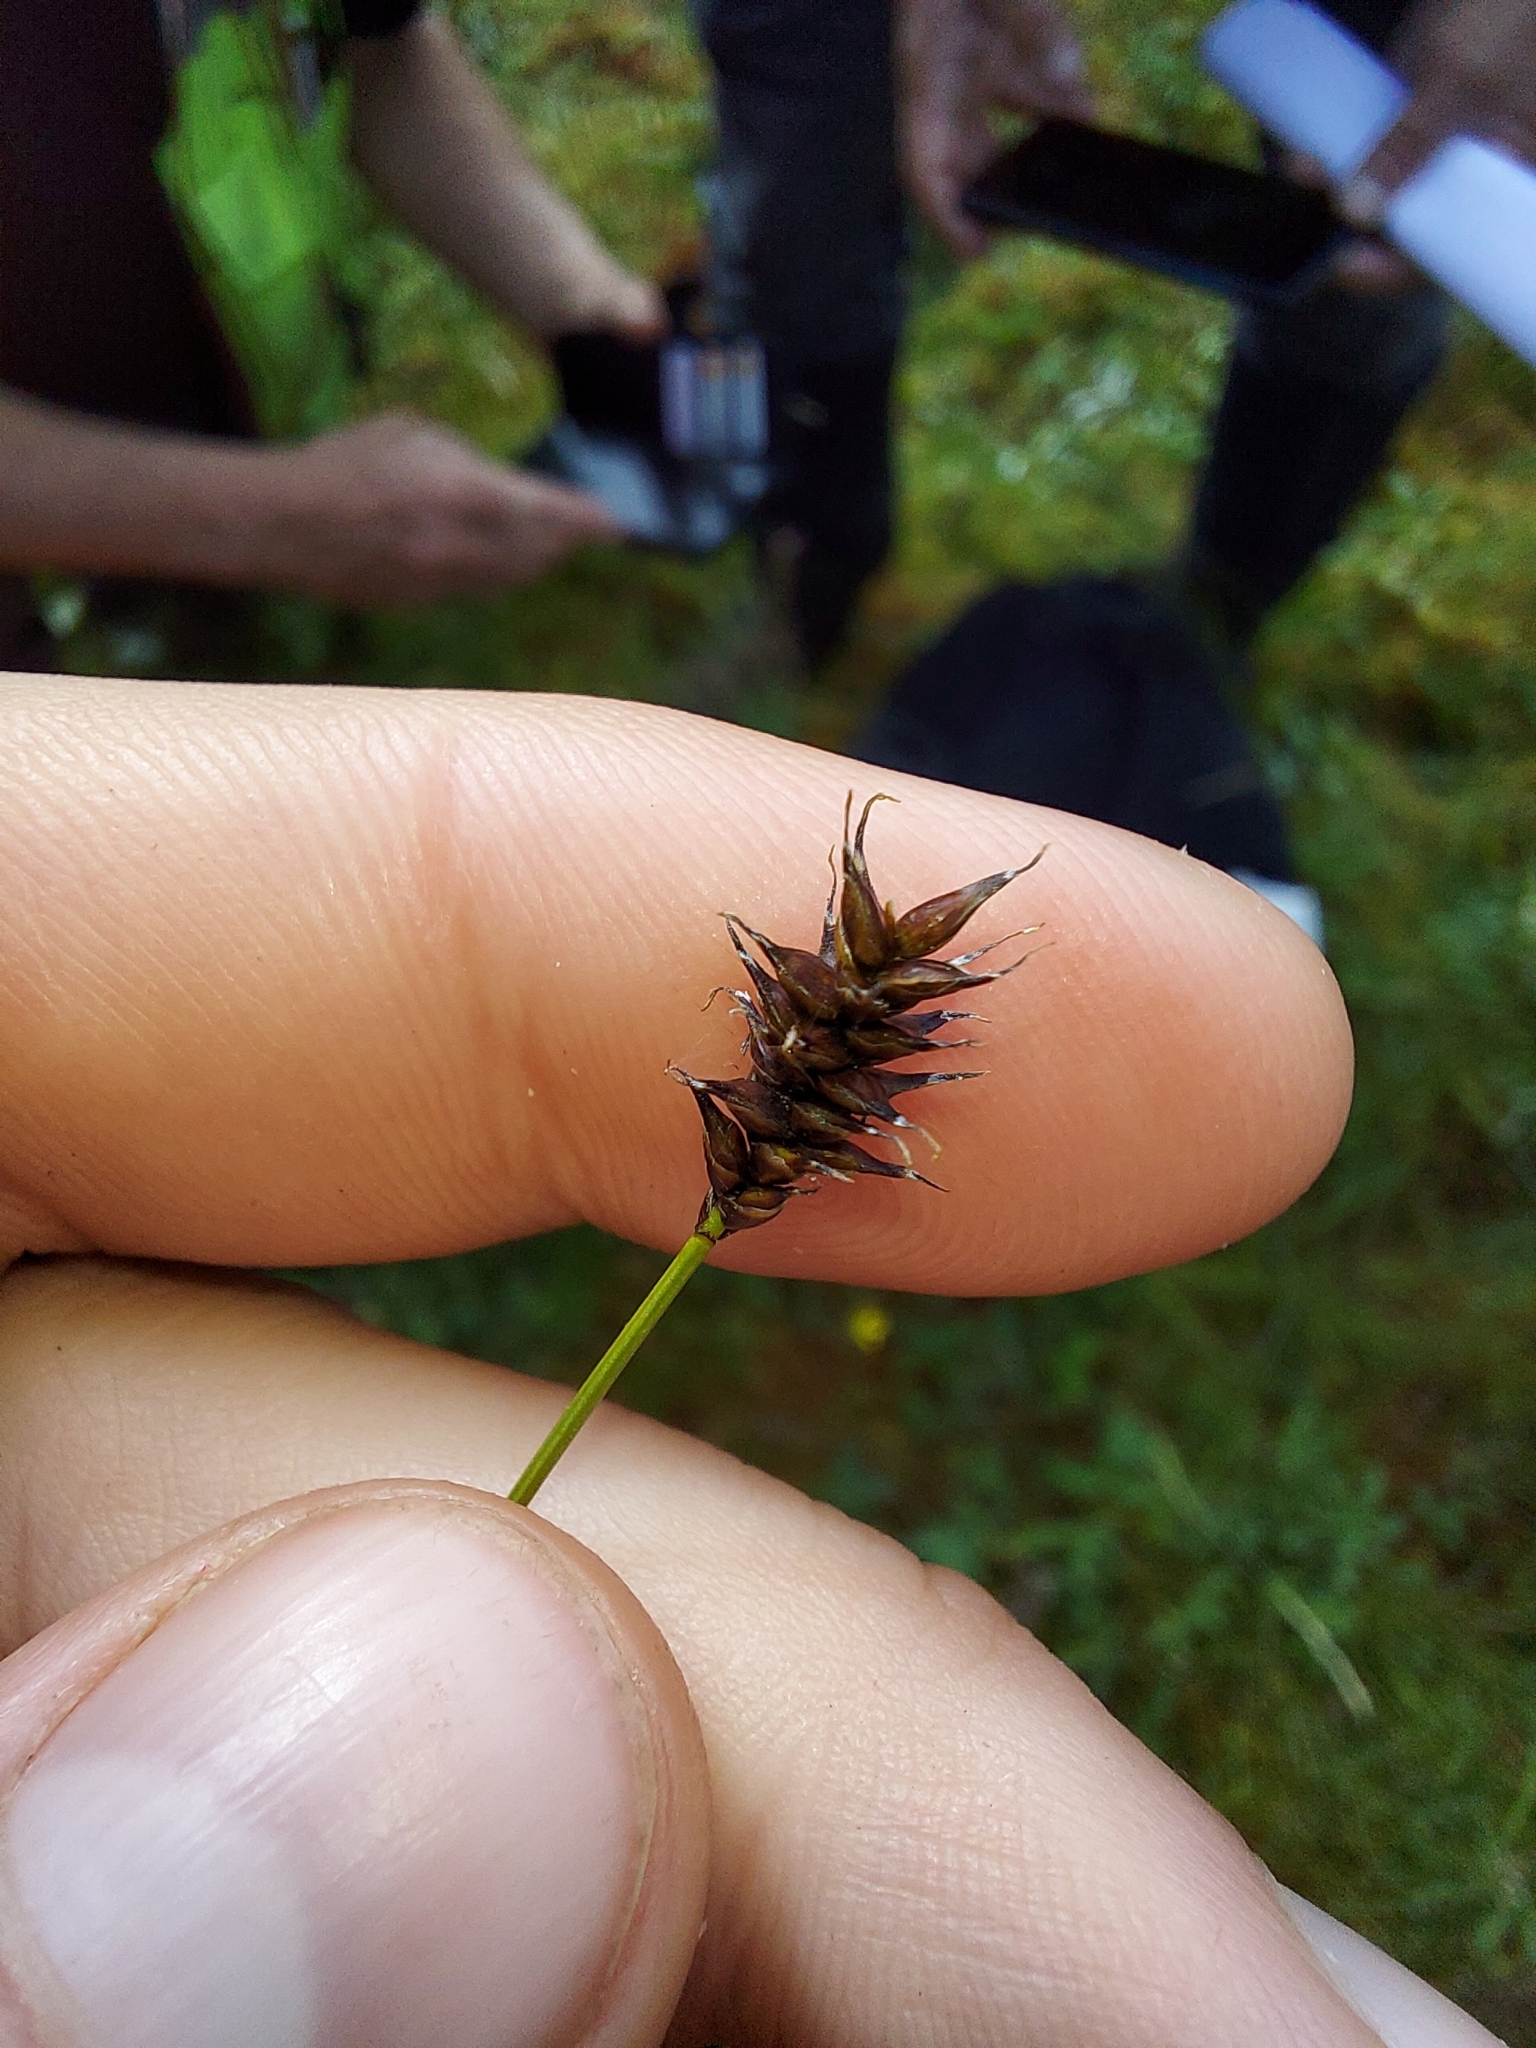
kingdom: Plantae
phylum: Tracheophyta
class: Liliopsida
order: Poales
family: Cyperaceae
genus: Carex
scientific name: Carex dioica
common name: Dioecious sedge
